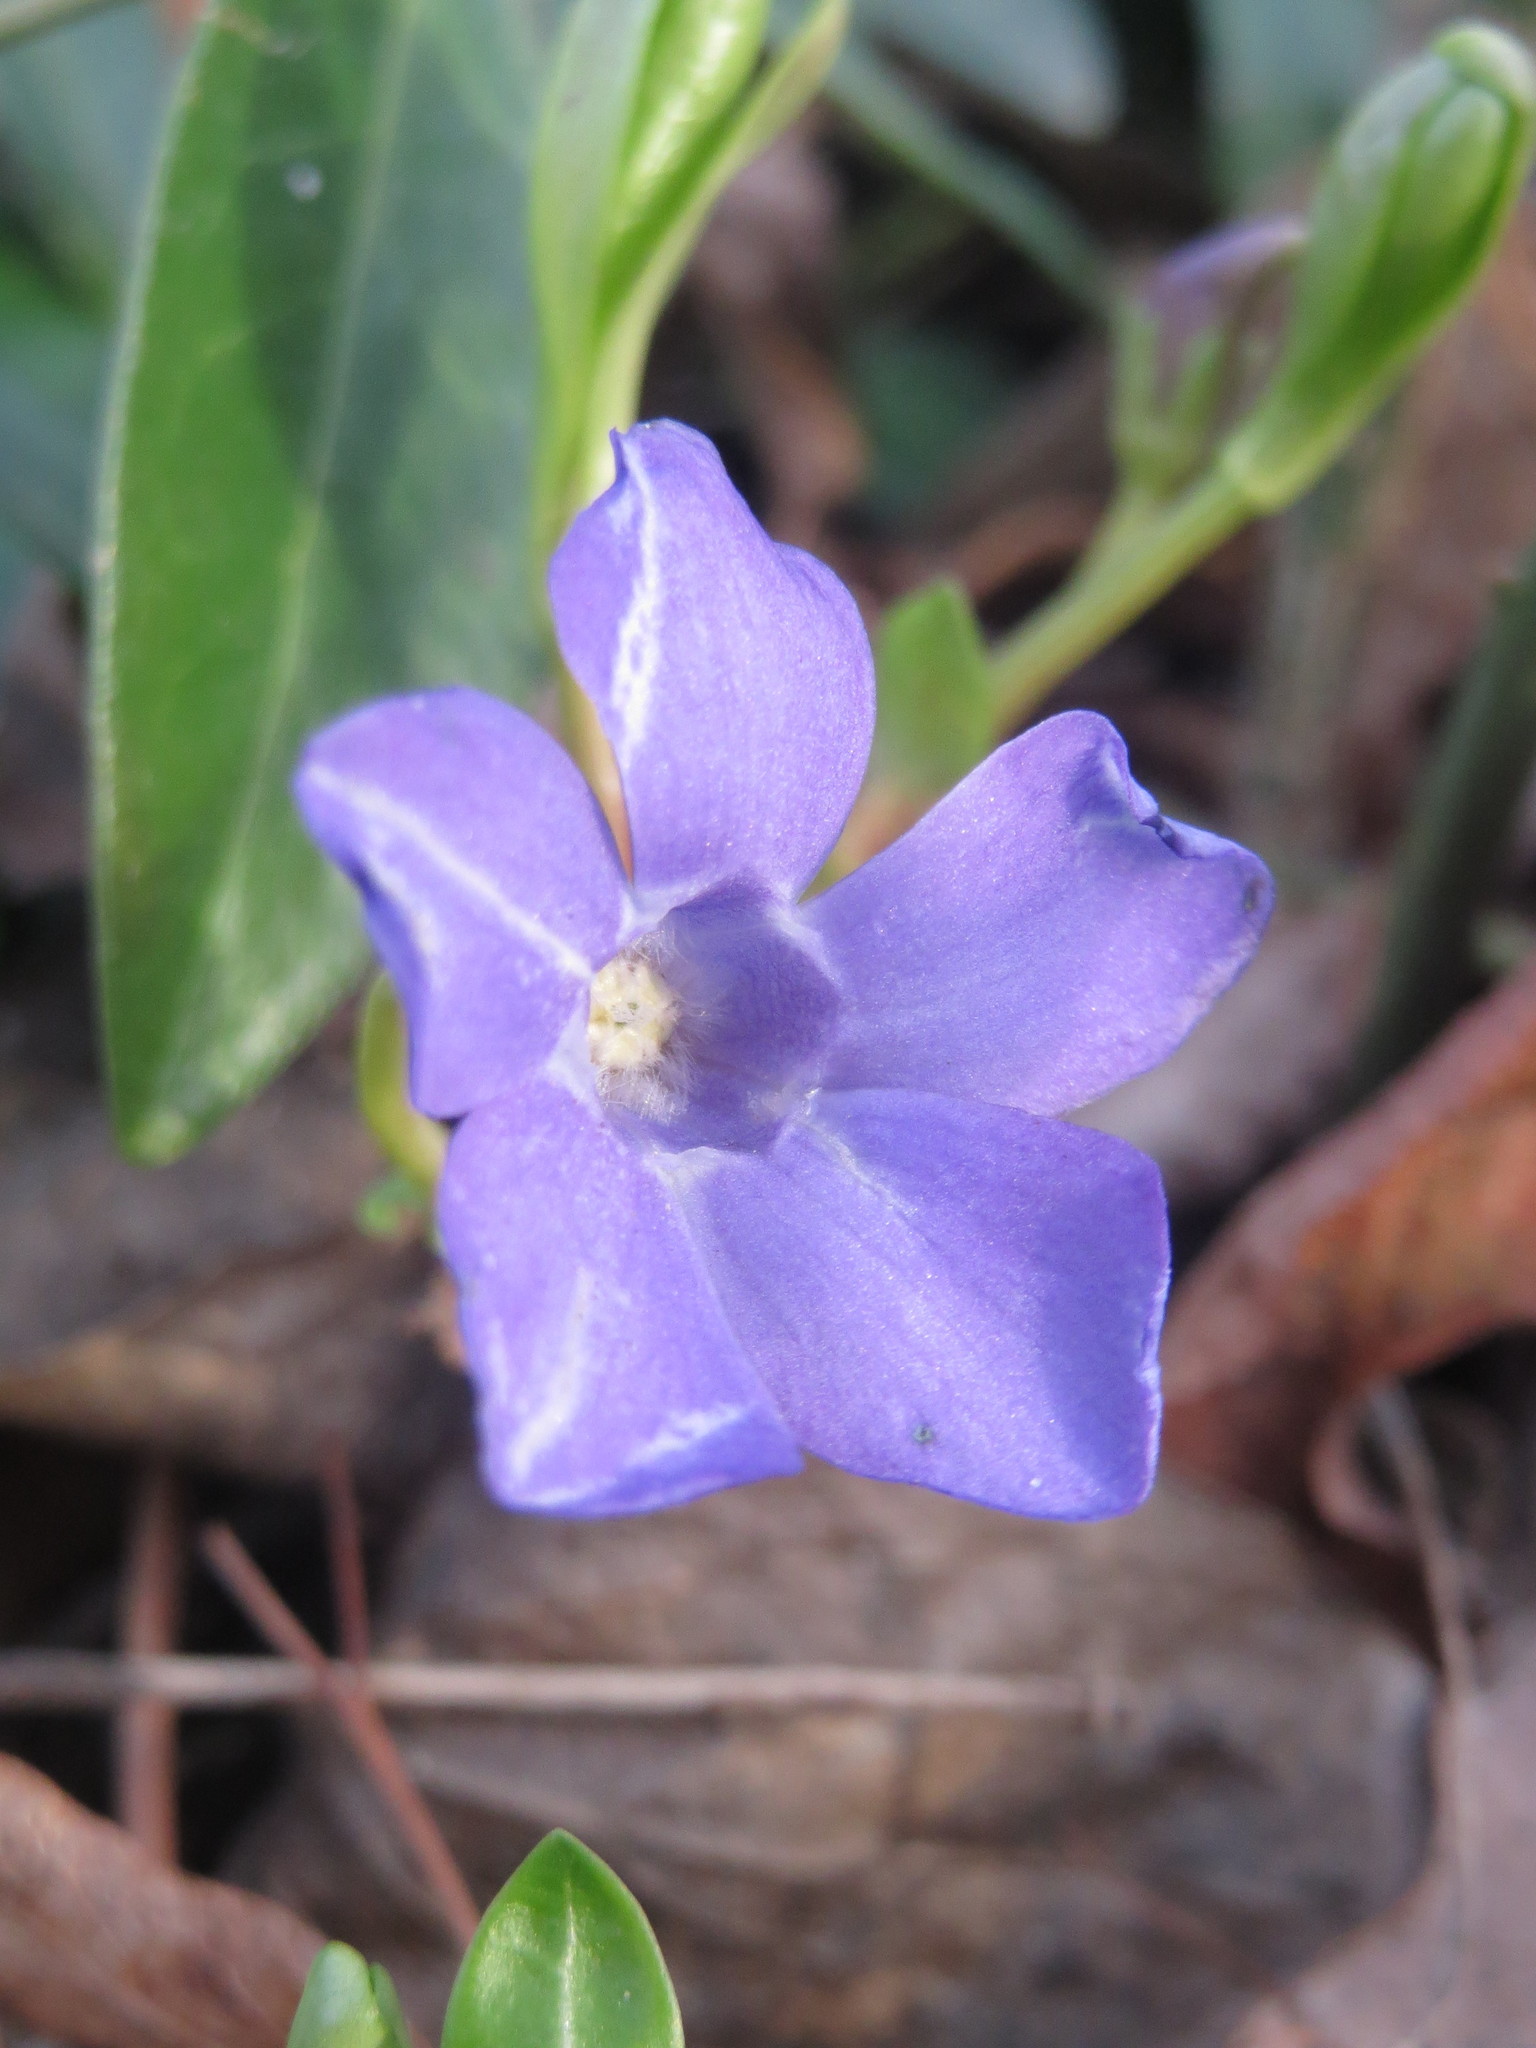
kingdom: Plantae
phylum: Tracheophyta
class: Magnoliopsida
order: Gentianales
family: Apocynaceae
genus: Vinca
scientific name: Vinca minor
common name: Lesser periwinkle
